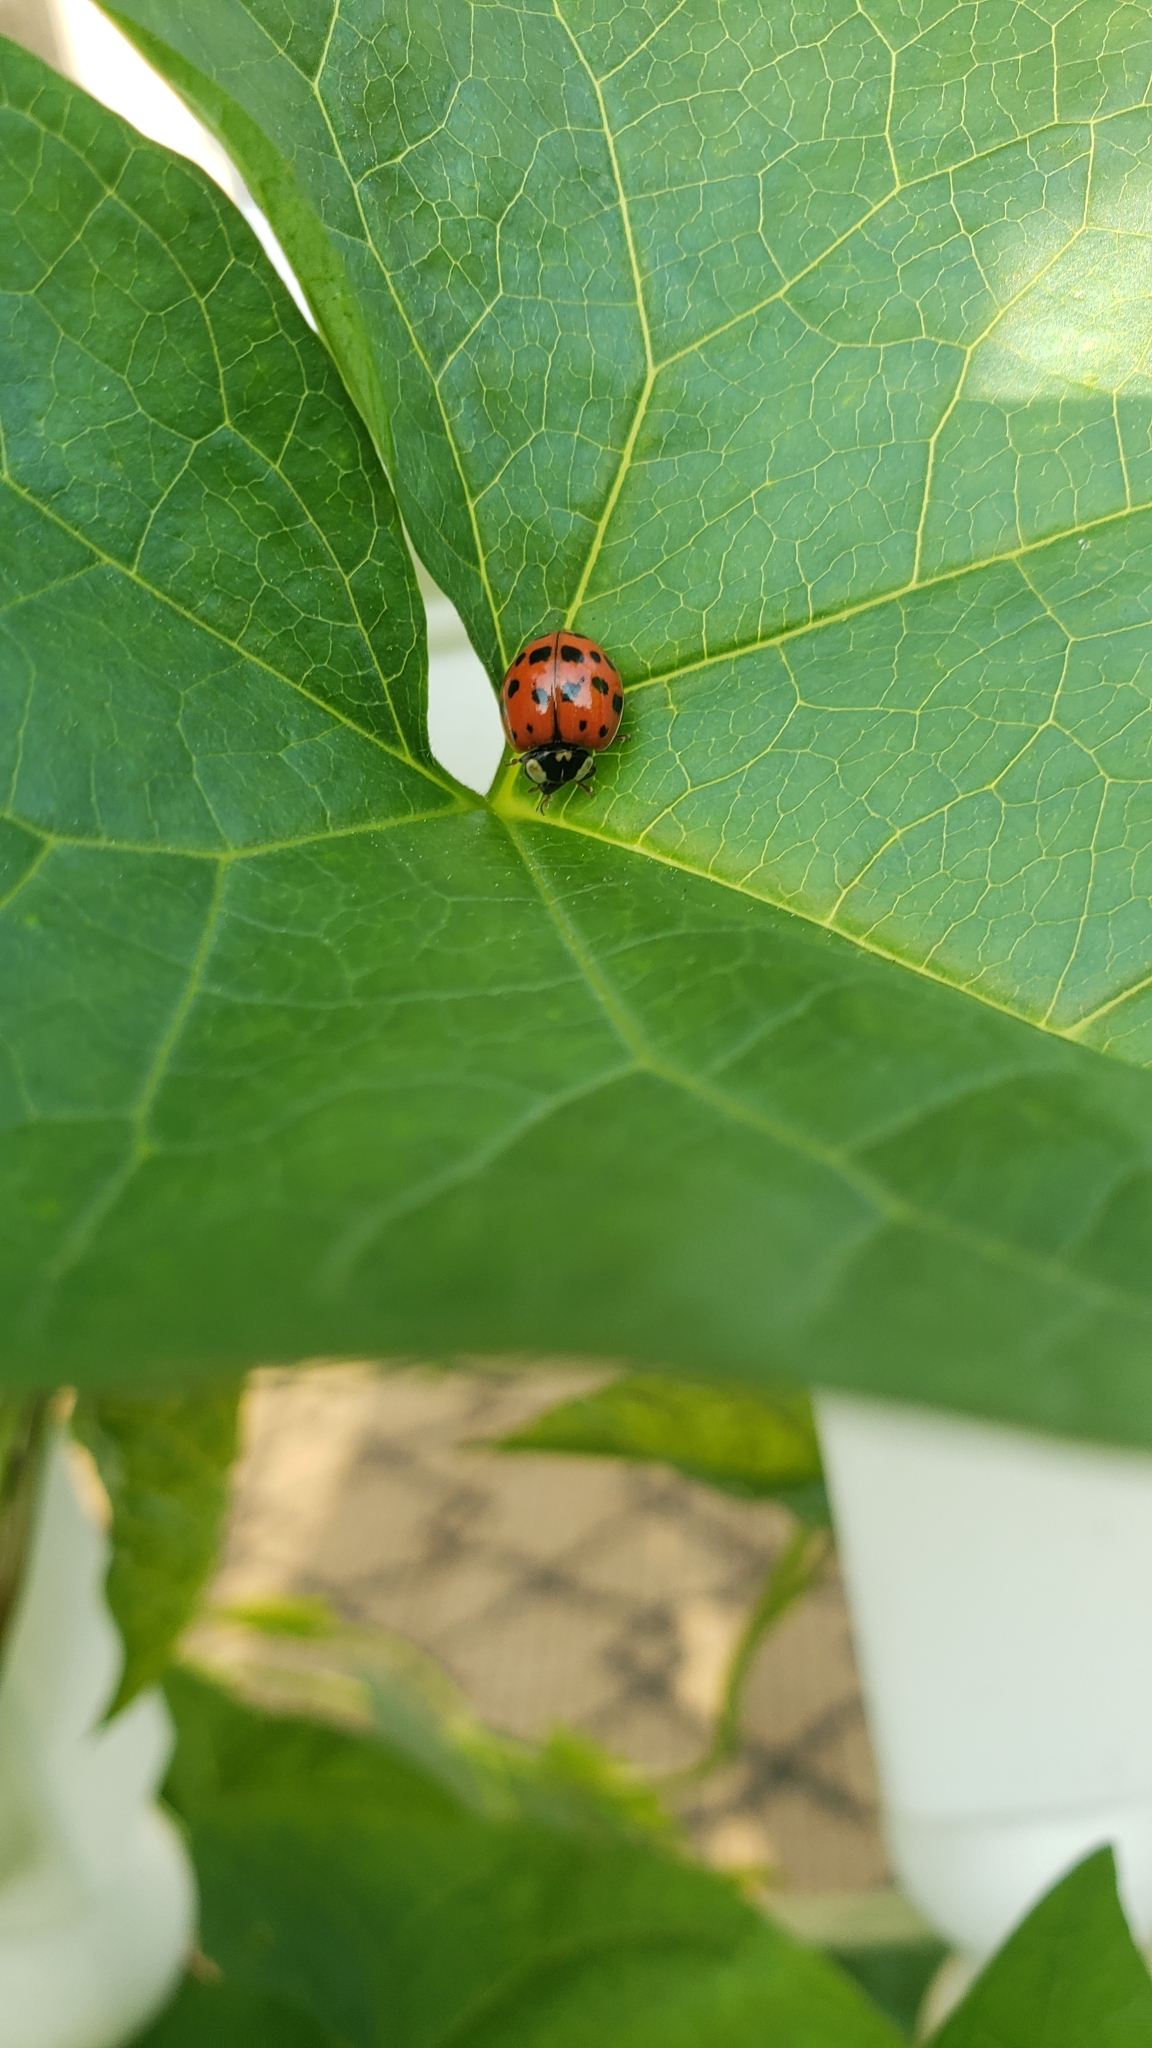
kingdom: Animalia
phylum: Arthropoda
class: Insecta
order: Coleoptera
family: Coccinellidae
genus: Harmonia
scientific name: Harmonia axyridis
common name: Harlequin ladybird
